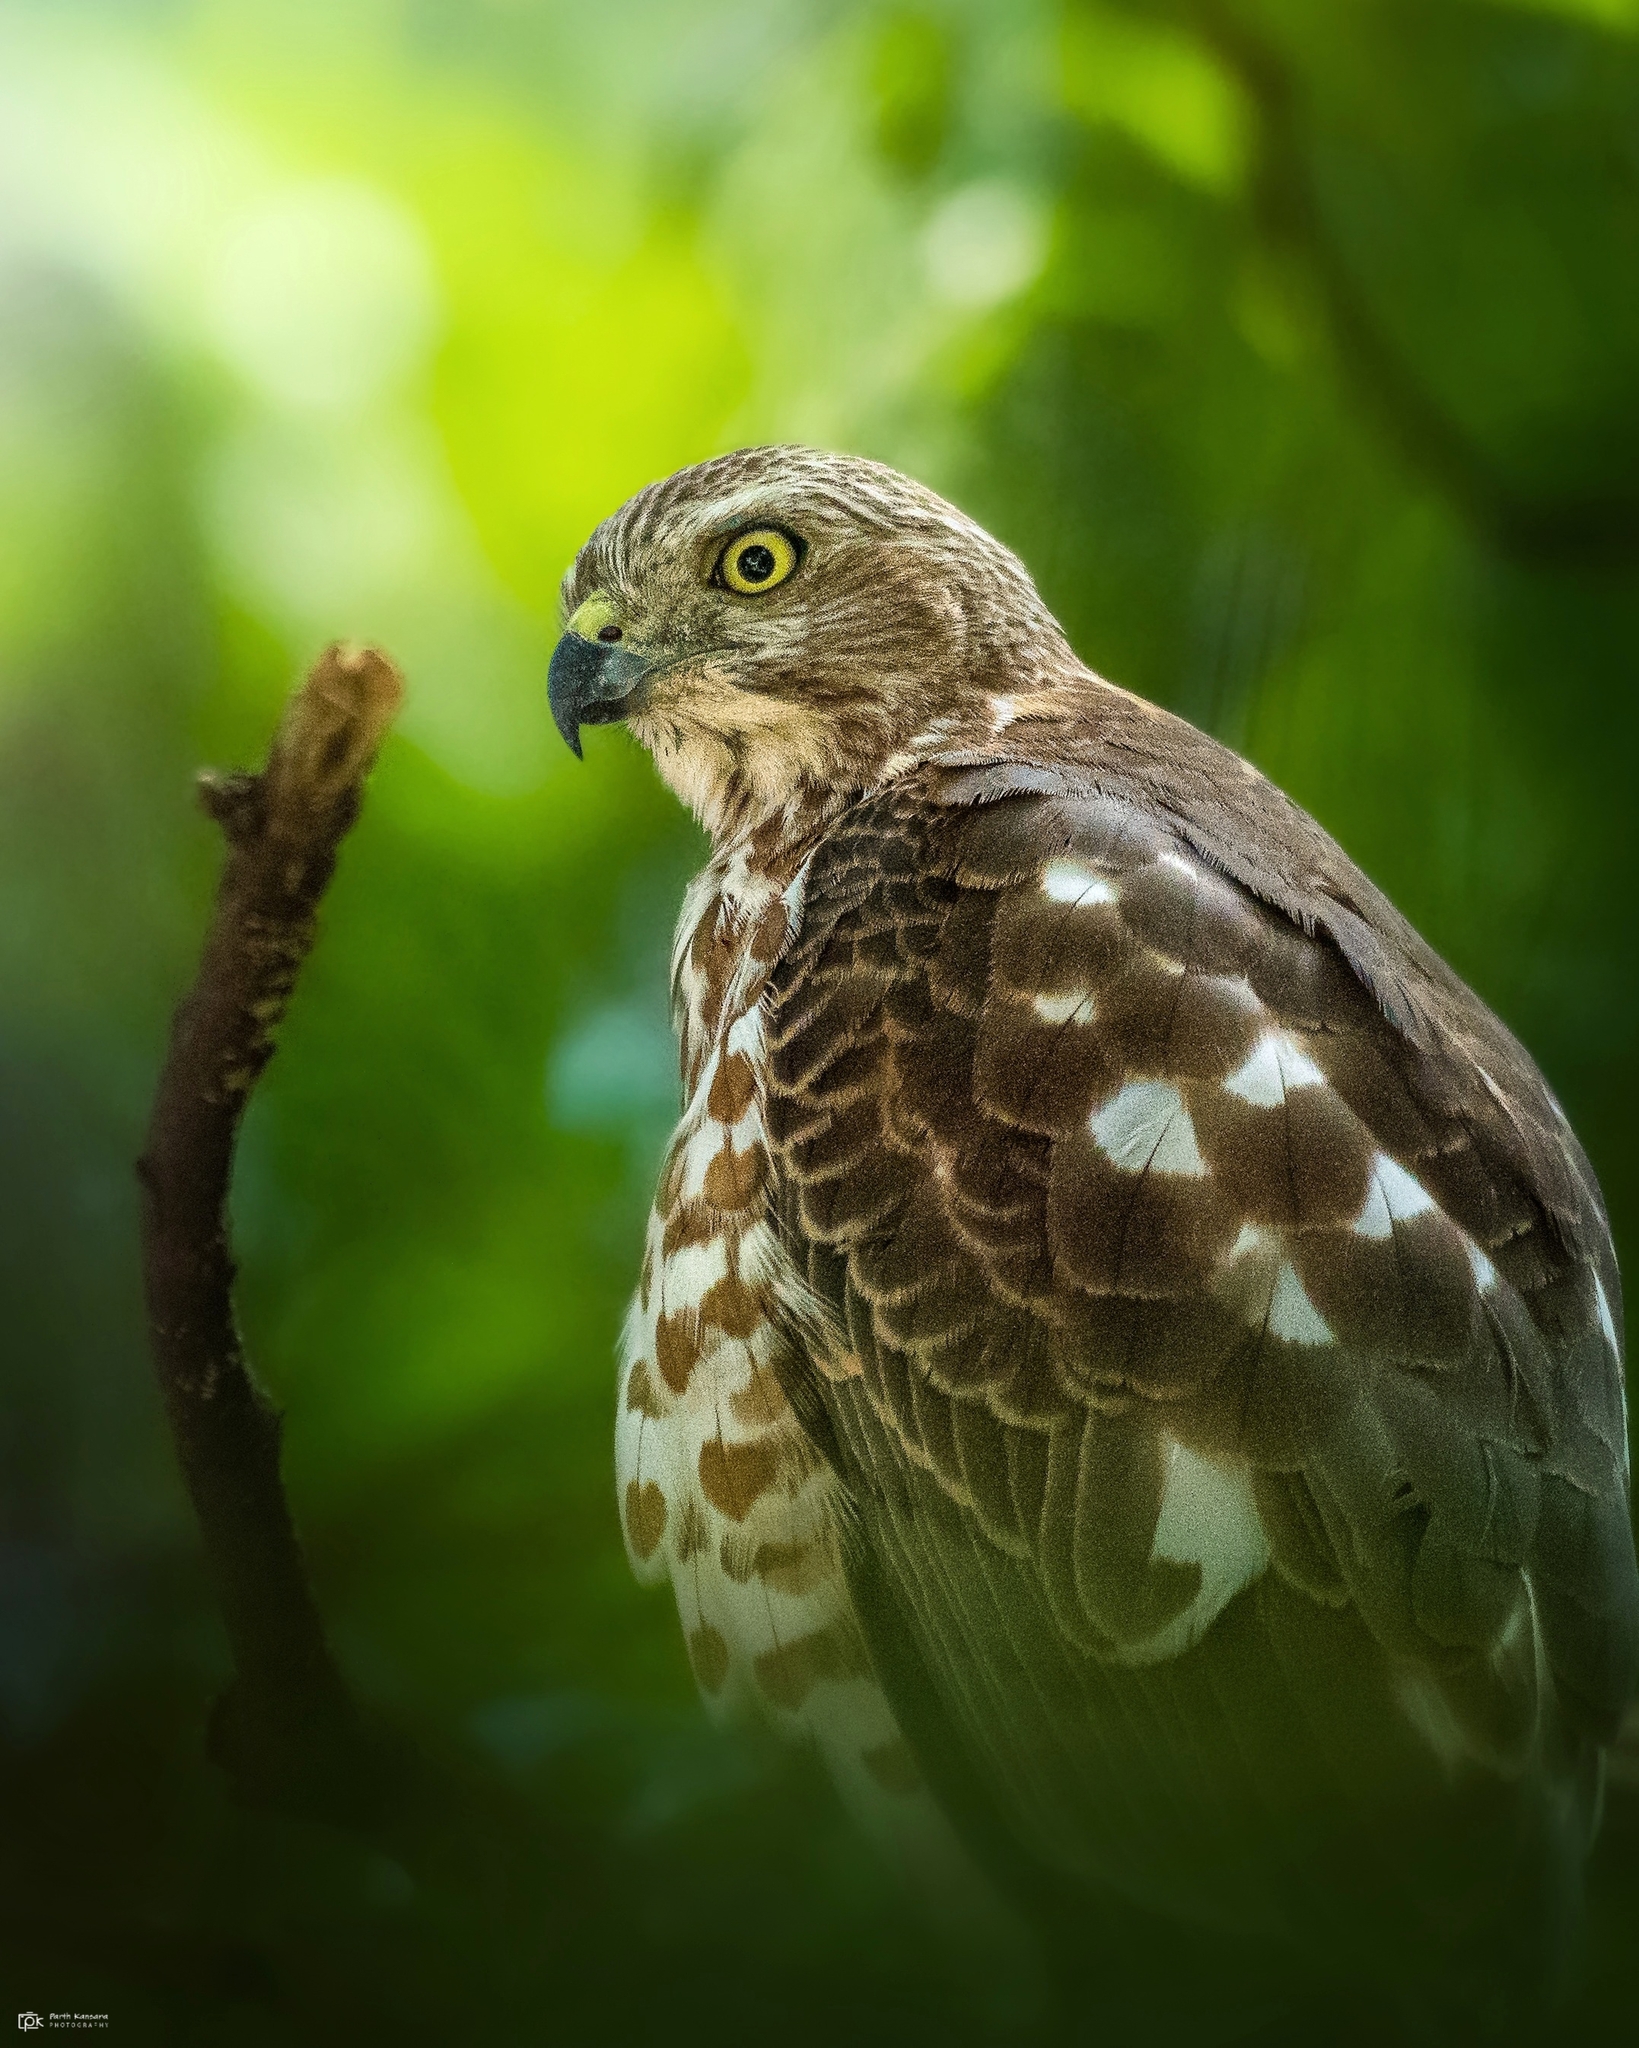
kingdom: Animalia
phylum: Chordata
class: Aves
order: Accipitriformes
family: Accipitridae
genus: Accipiter
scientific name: Accipiter badius
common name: Shikra
